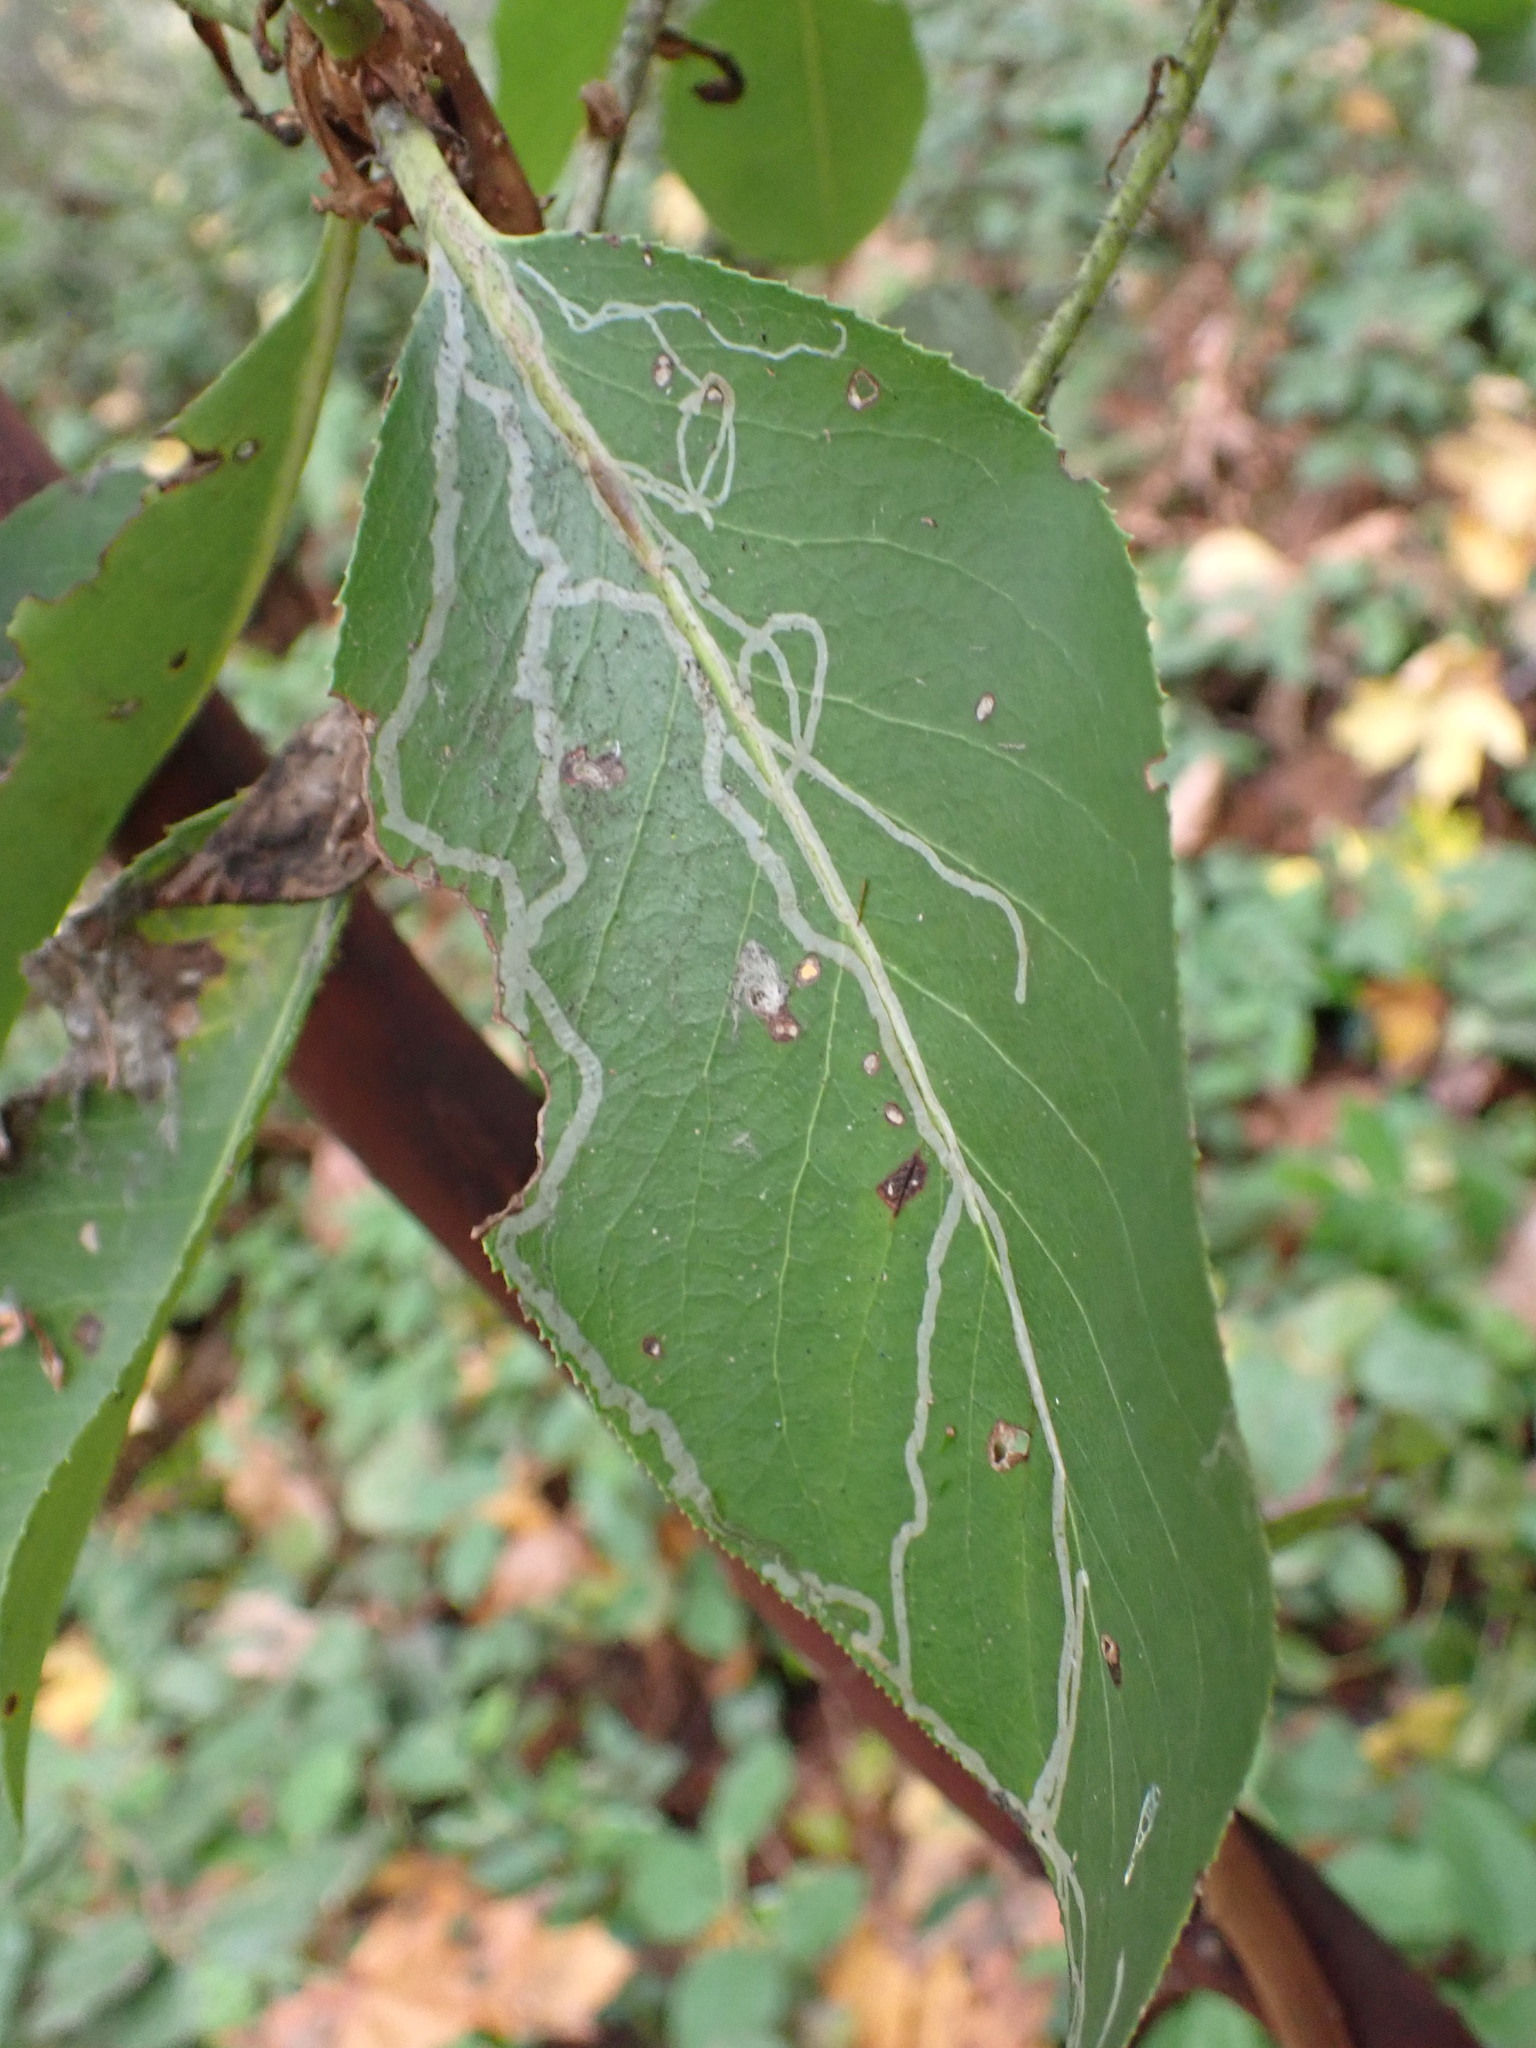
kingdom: Animalia
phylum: Arthropoda
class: Insecta
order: Lepidoptera
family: Gracillariidae
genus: Marmara
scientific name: Marmara arbutiella
